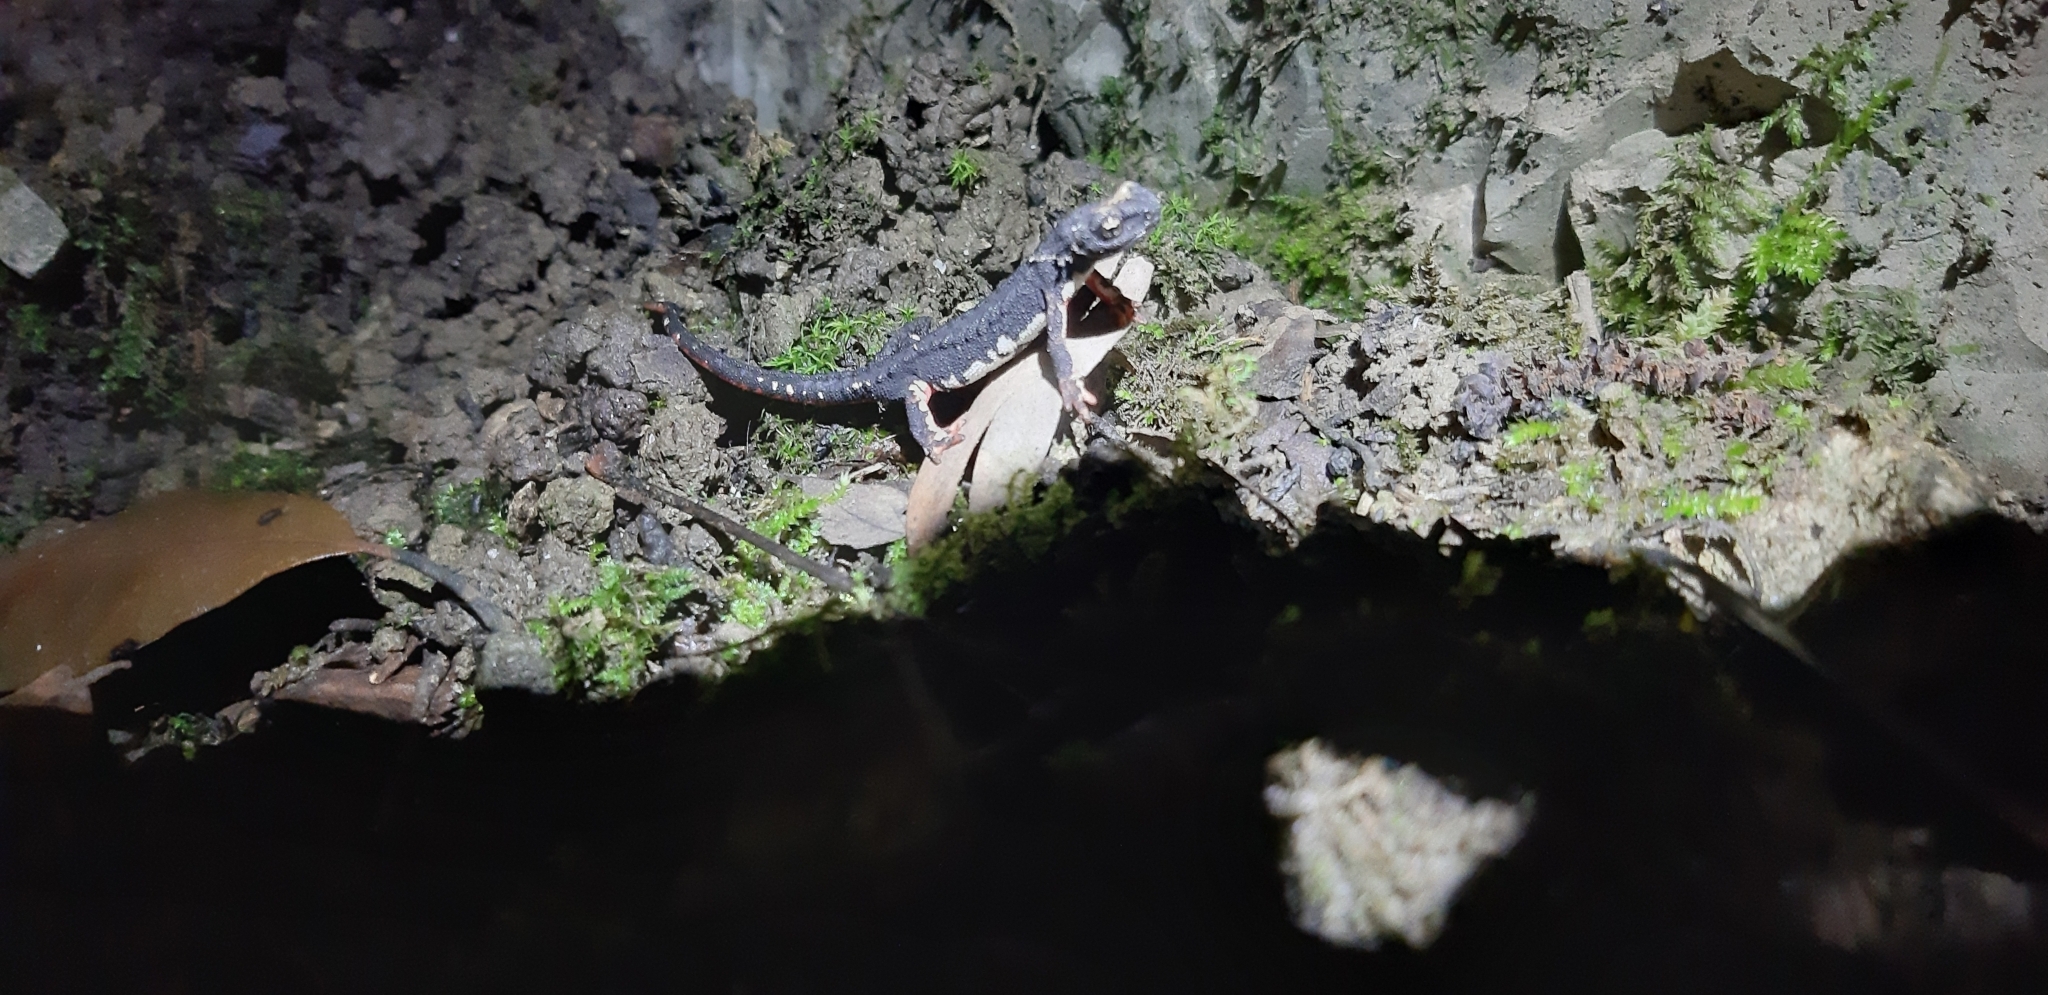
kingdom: Animalia
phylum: Chordata
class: Amphibia
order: Caudata
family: Salamandridae
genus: Salamandrina
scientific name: Salamandrina perspicillata
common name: Northern spectacled salamander
